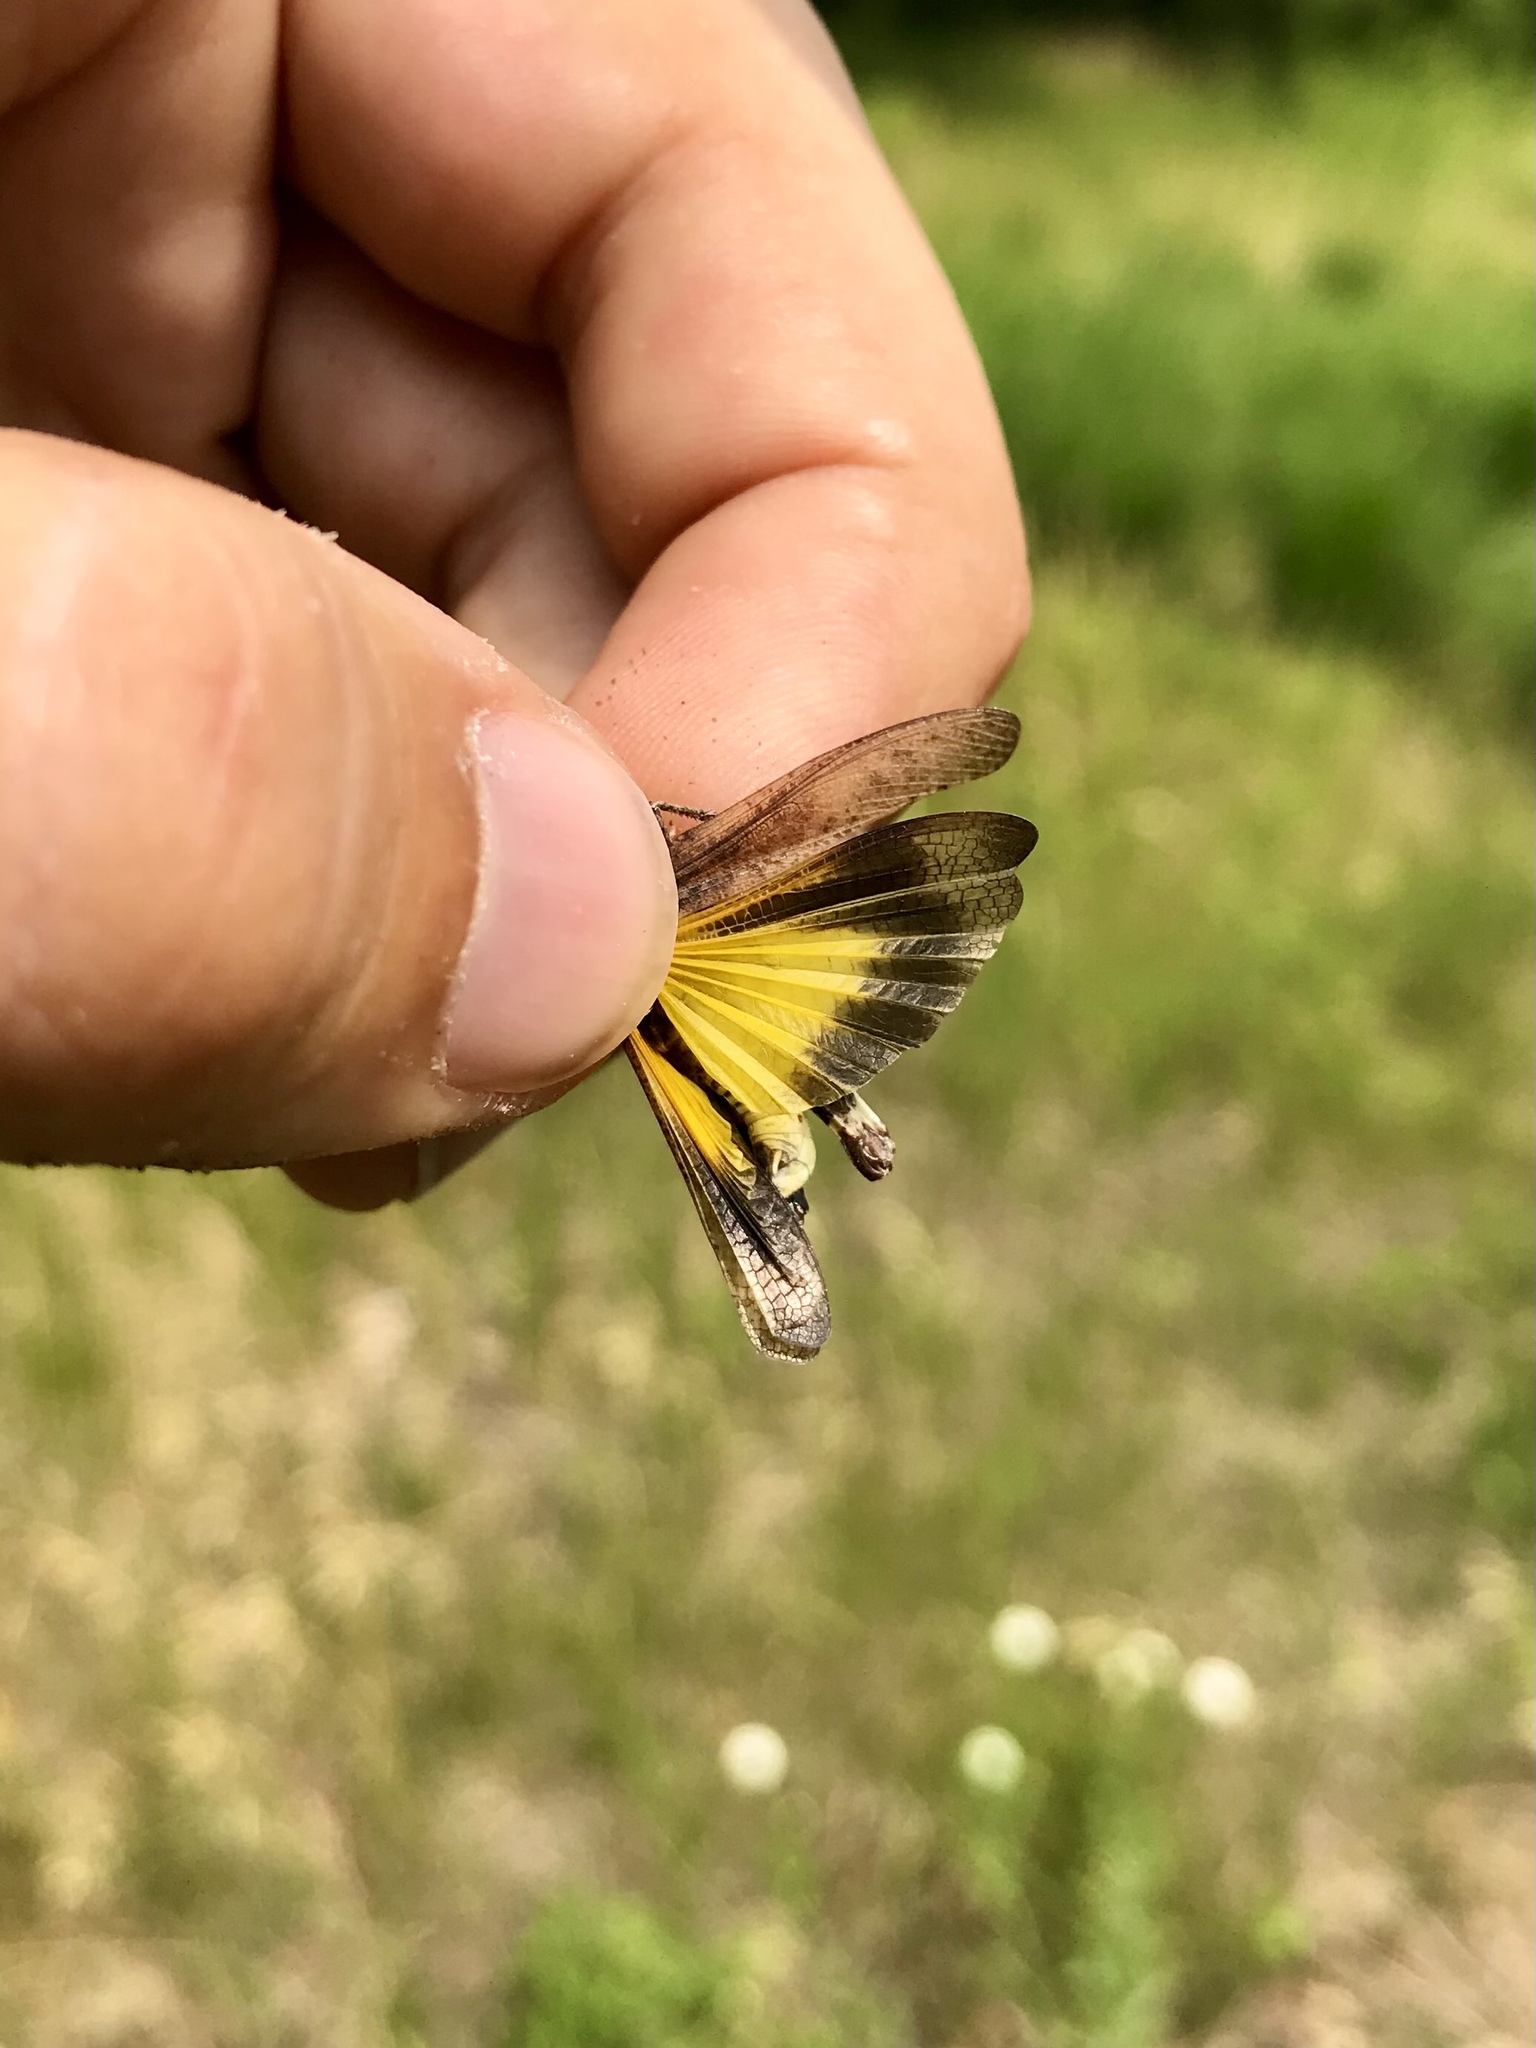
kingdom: Animalia
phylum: Arthropoda
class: Insecta
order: Orthoptera
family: Acrididae
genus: Arphia
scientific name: Arphia sulphurea
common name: Spring yellow-winged locust
